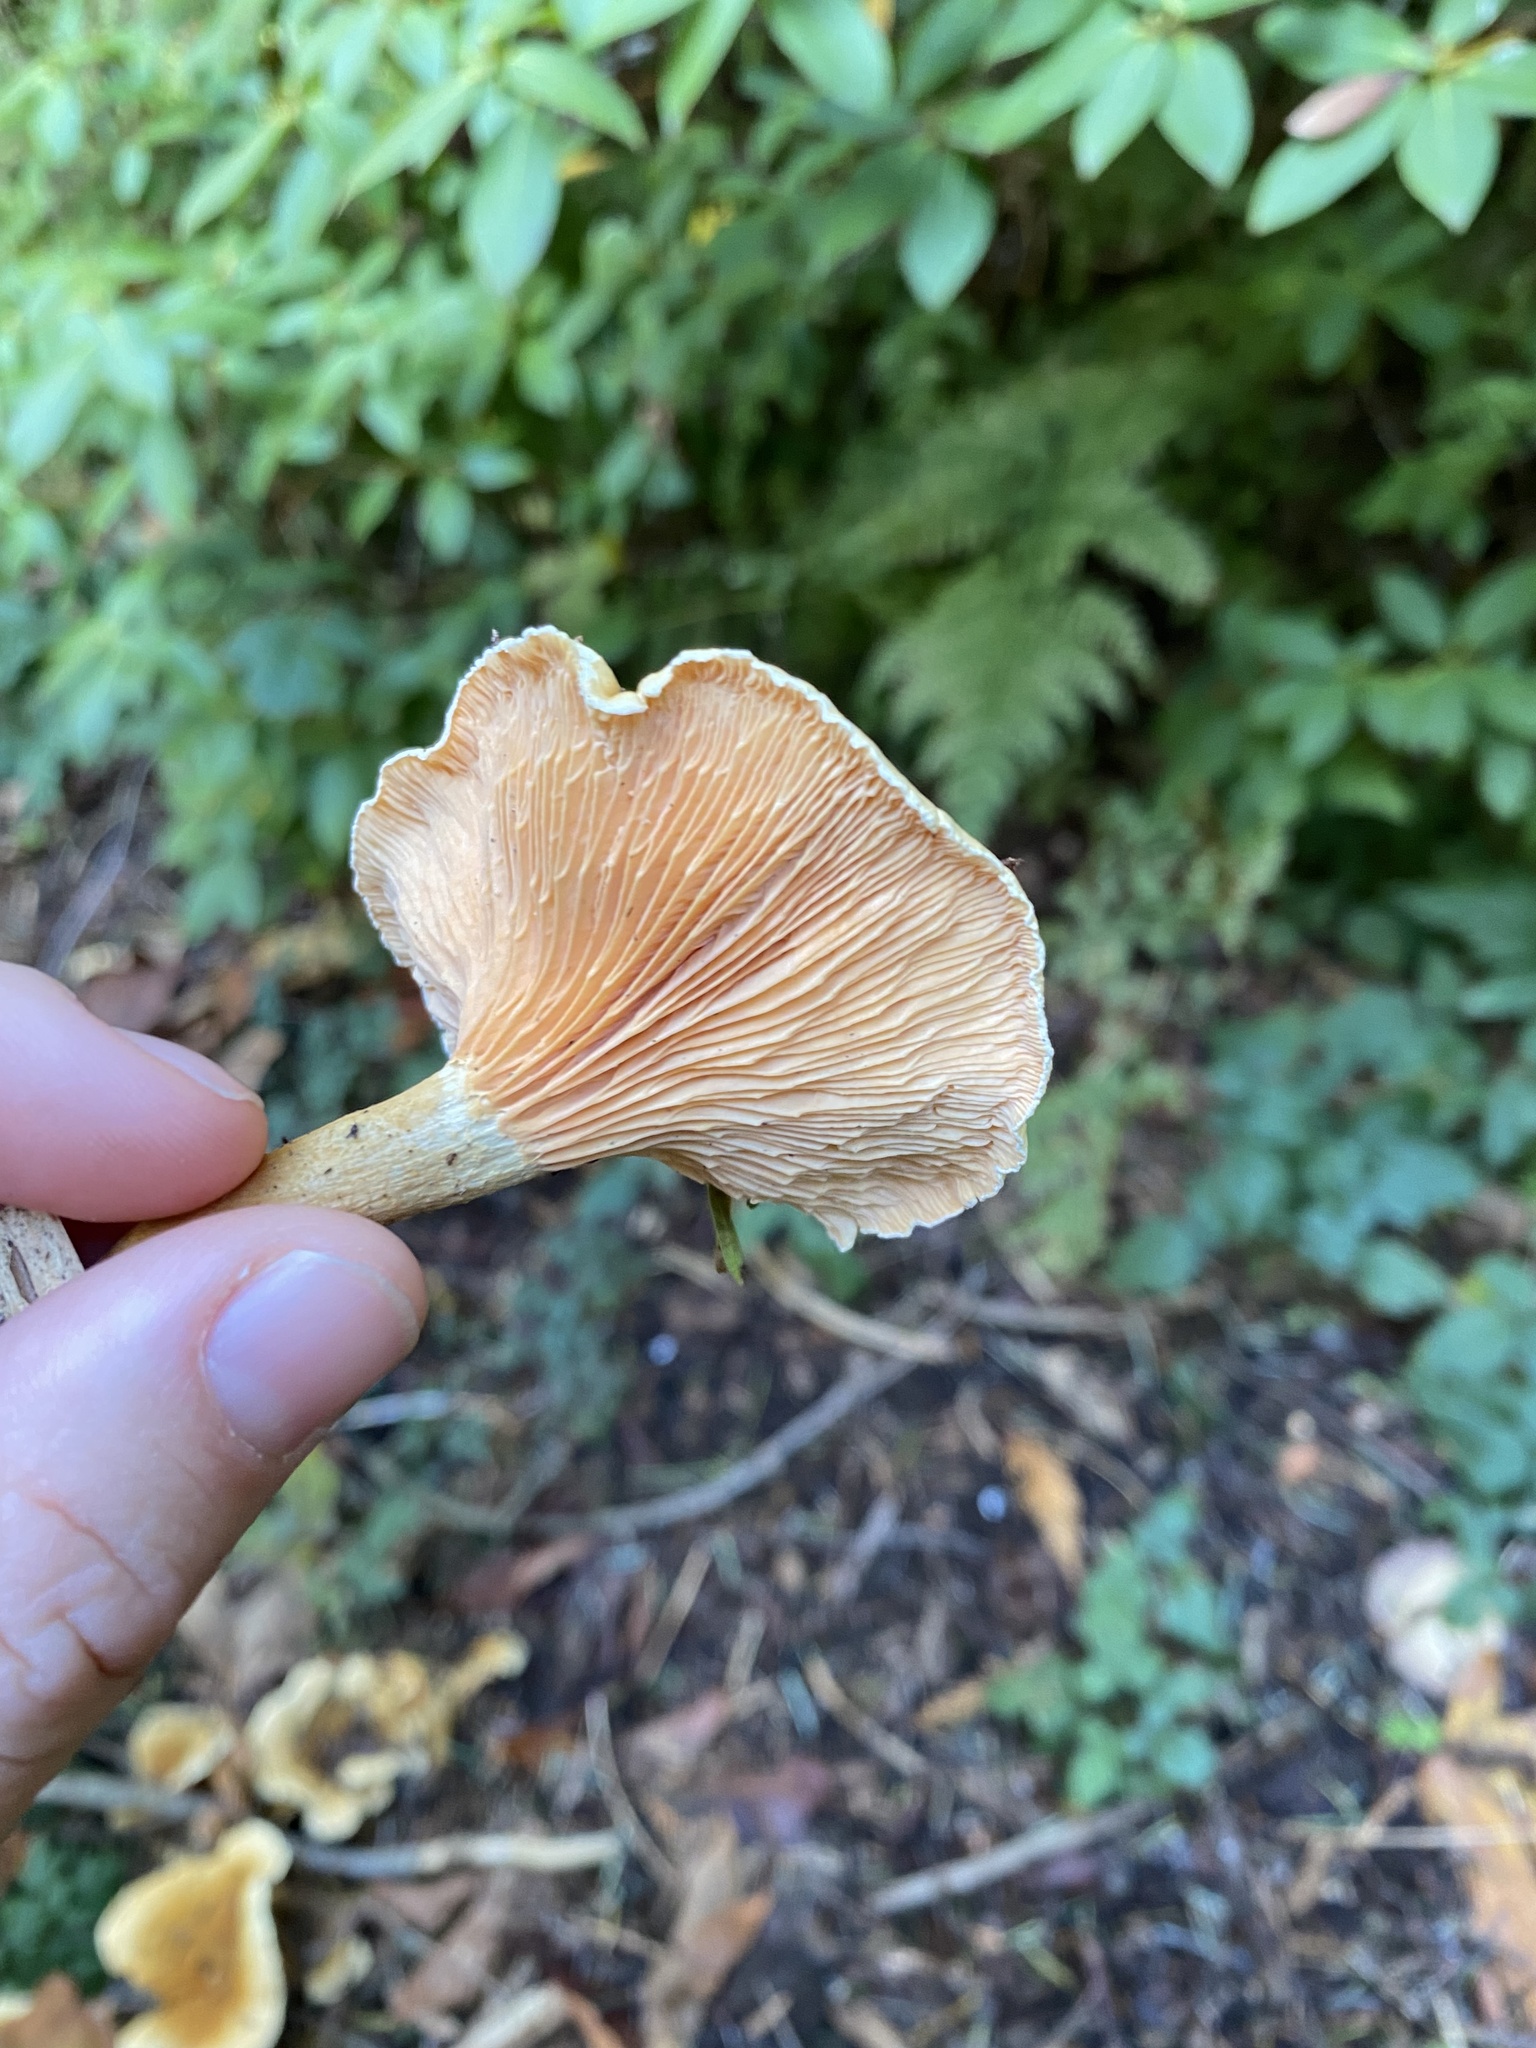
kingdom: Fungi
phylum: Basidiomycota
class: Agaricomycetes
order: Boletales
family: Hygrophoropsidaceae
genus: Hygrophoropsis
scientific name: Hygrophoropsis aurantiaca
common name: False chanterelle
